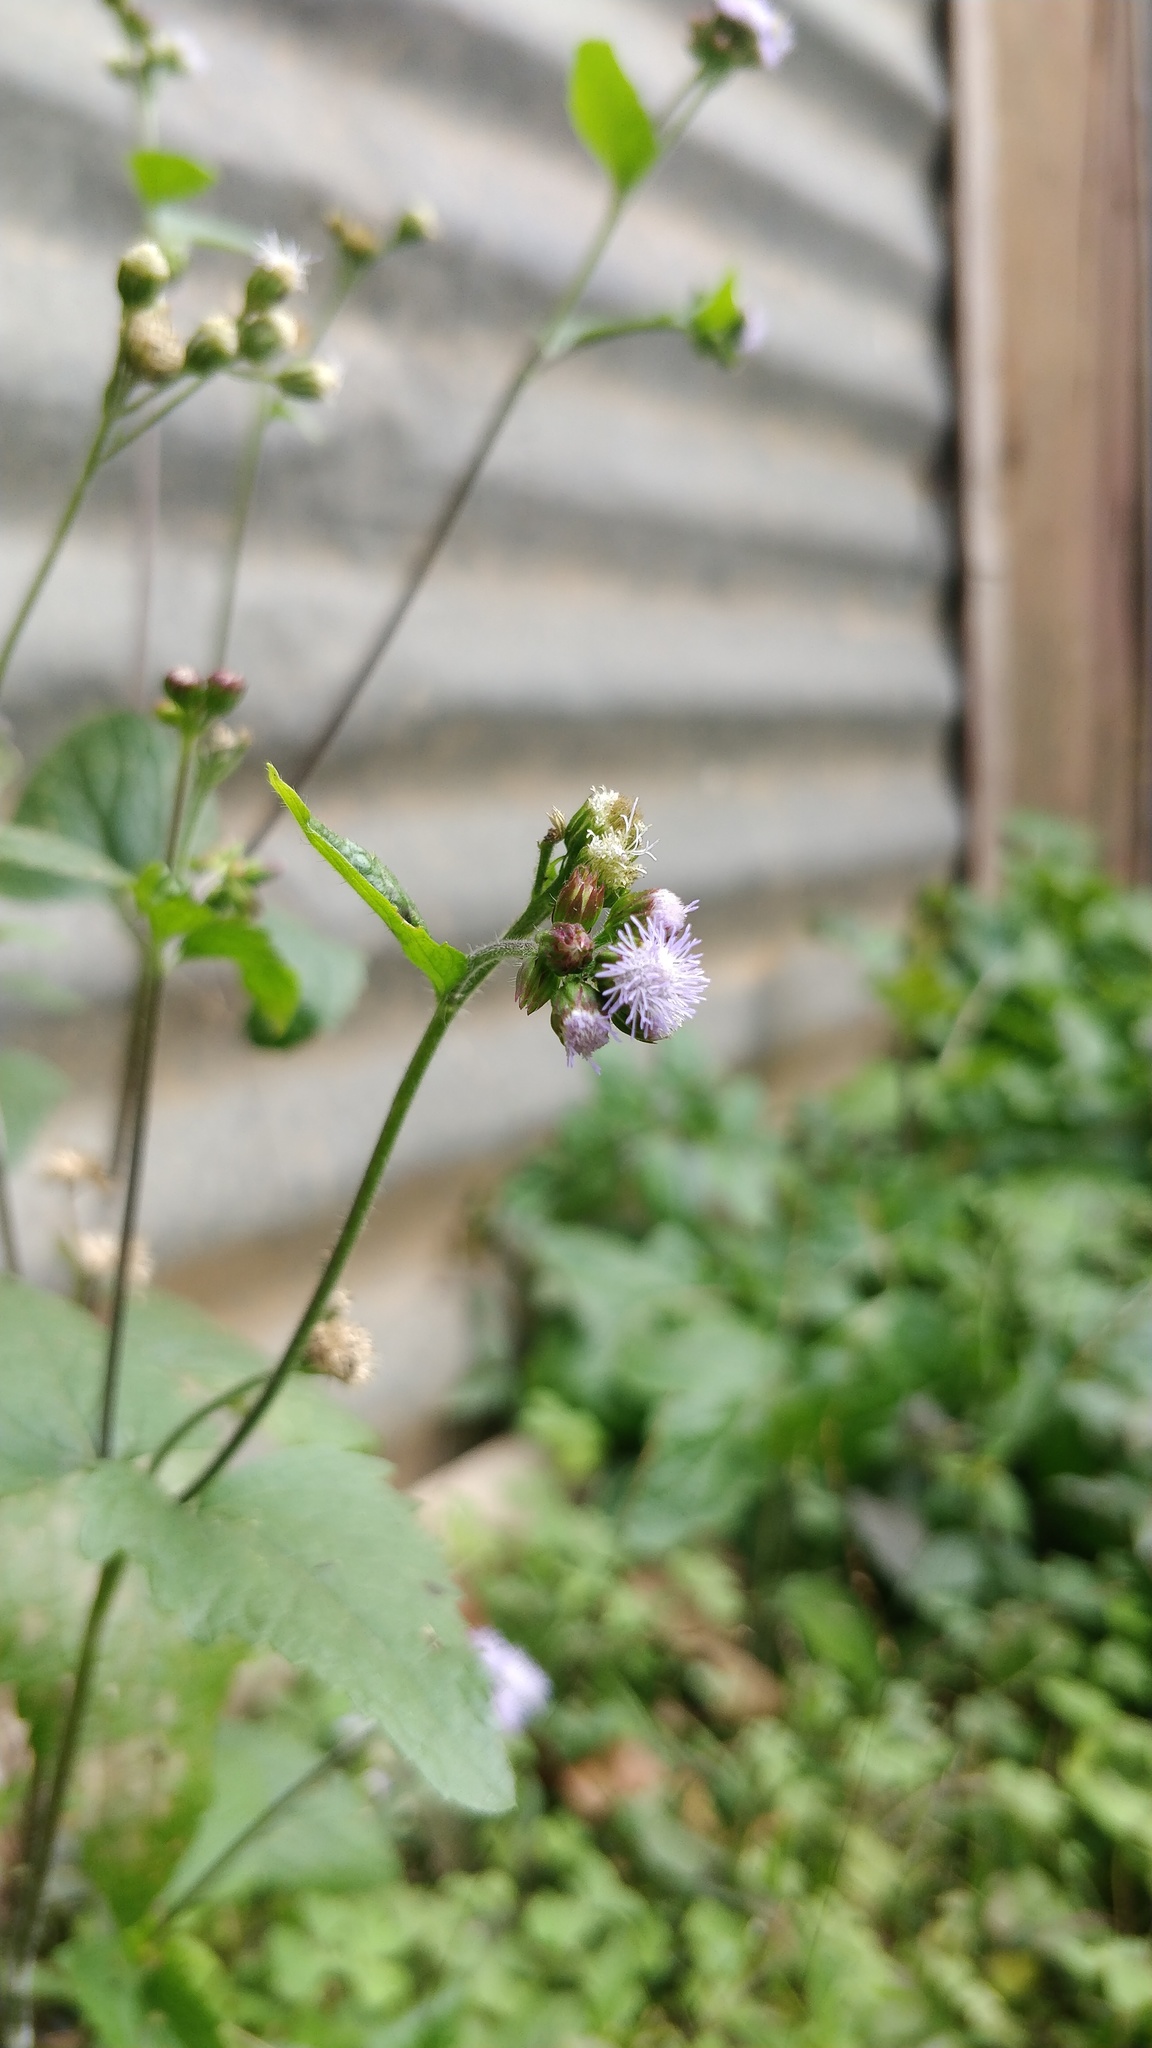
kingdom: Plantae
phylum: Tracheophyta
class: Magnoliopsida
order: Asterales
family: Asteraceae
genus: Ageratum
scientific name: Ageratum conyzoides
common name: Tropical whiteweed
